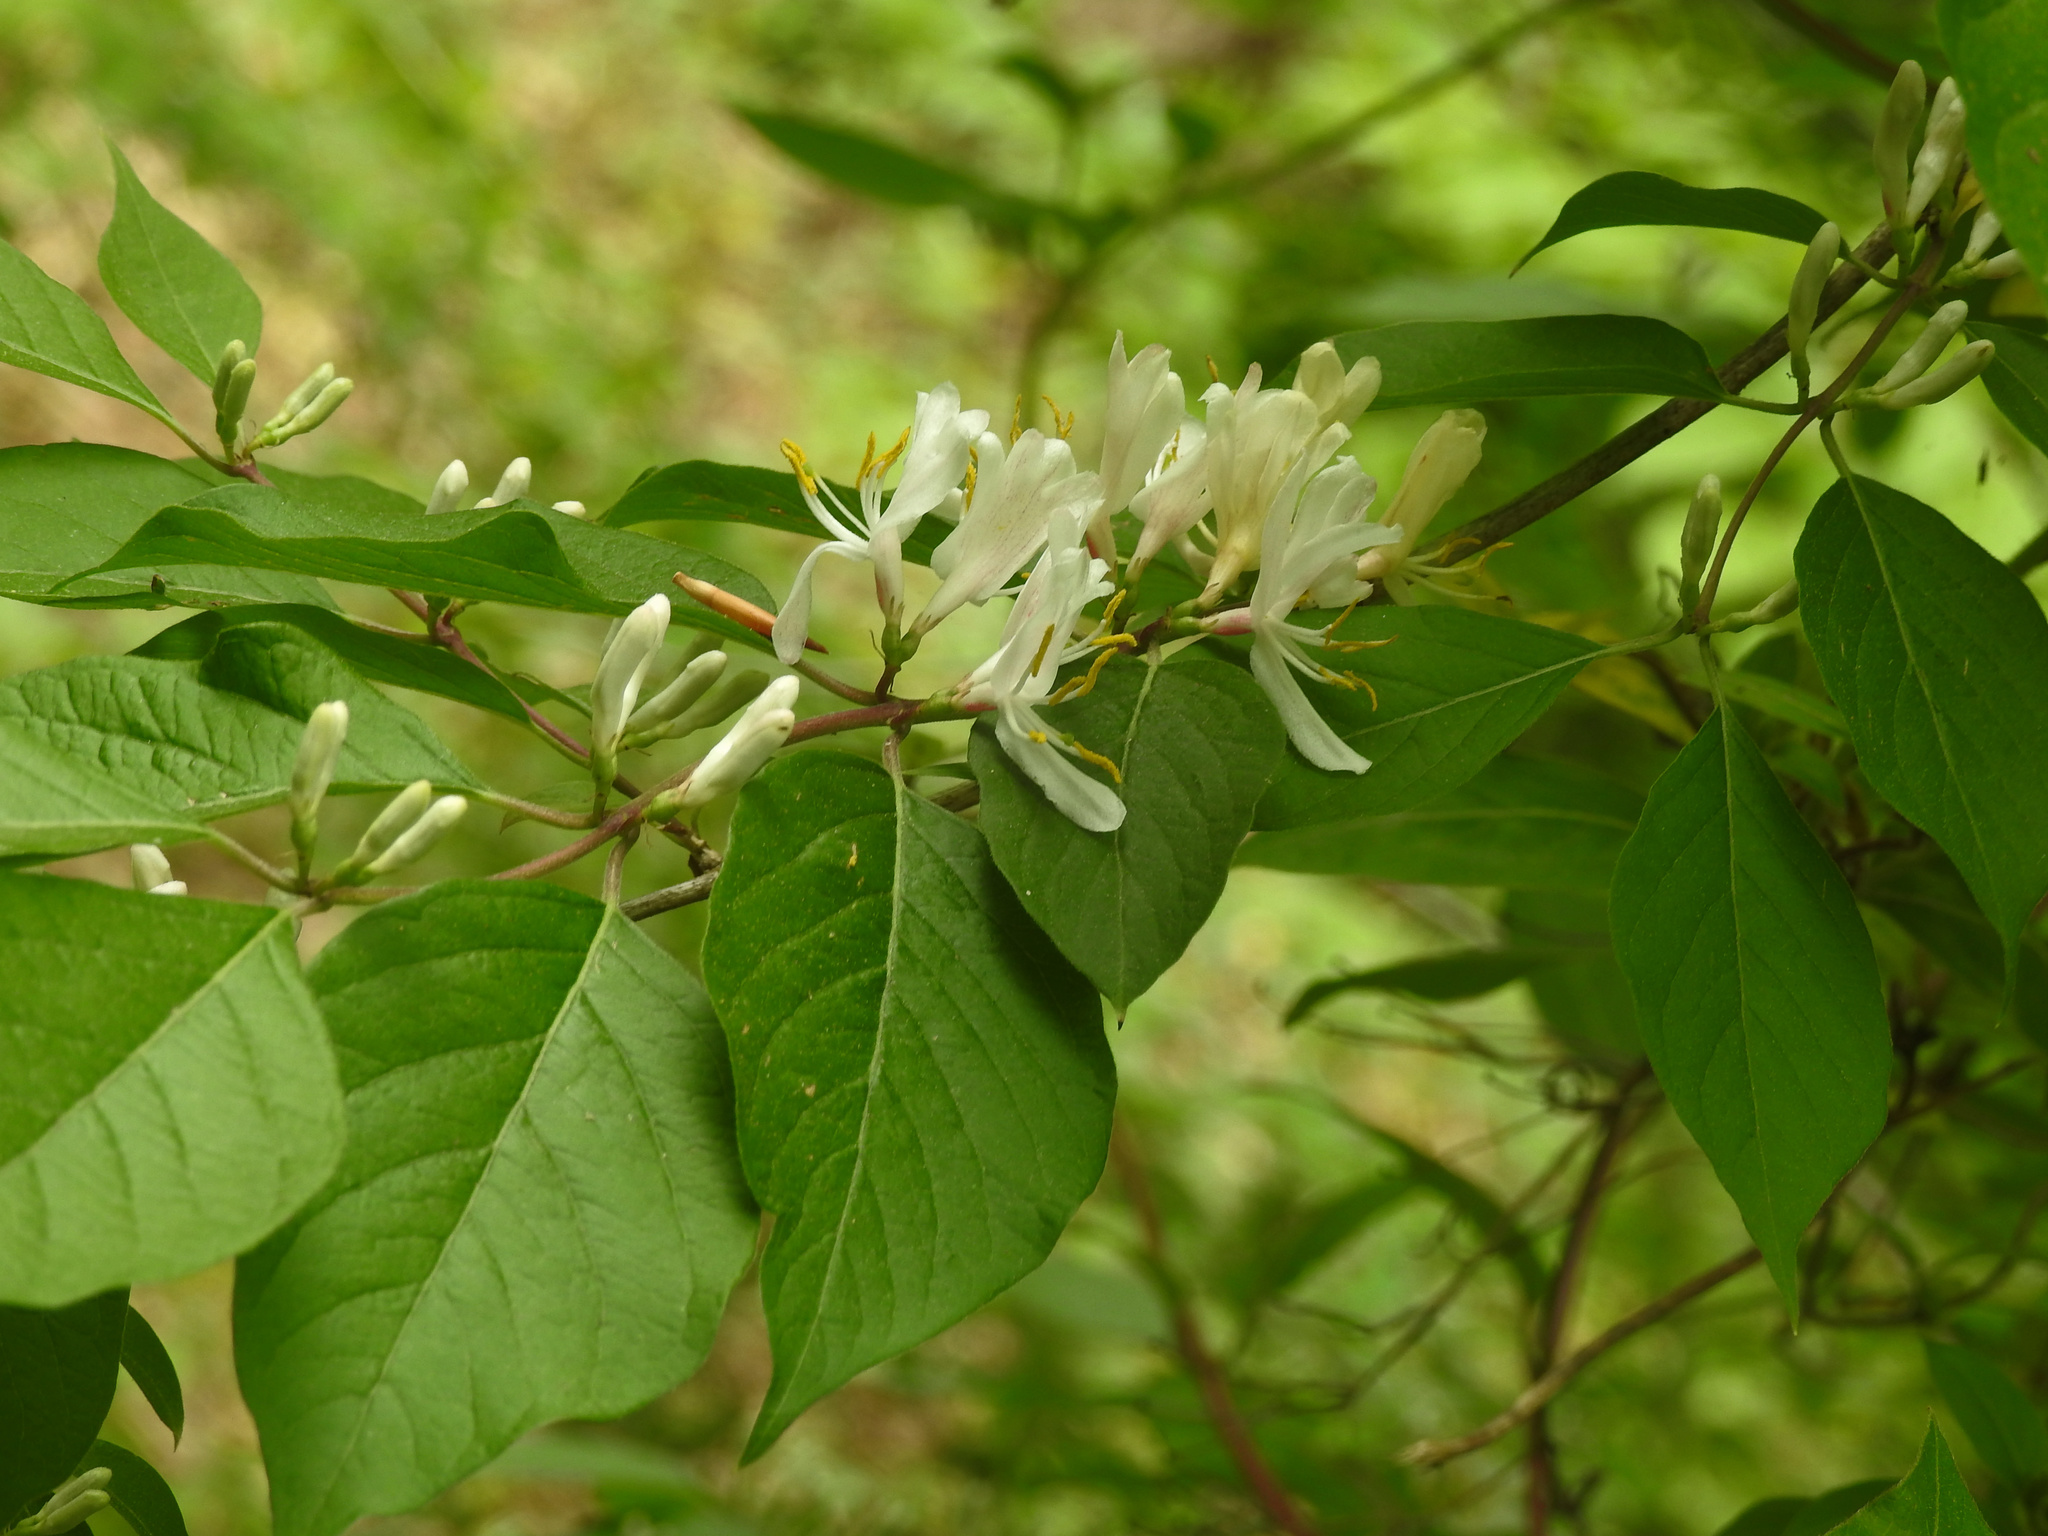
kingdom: Plantae
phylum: Tracheophyta
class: Magnoliopsida
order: Dipsacales
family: Caprifoliaceae
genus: Lonicera
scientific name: Lonicera maackii
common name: Amur honeysuckle
